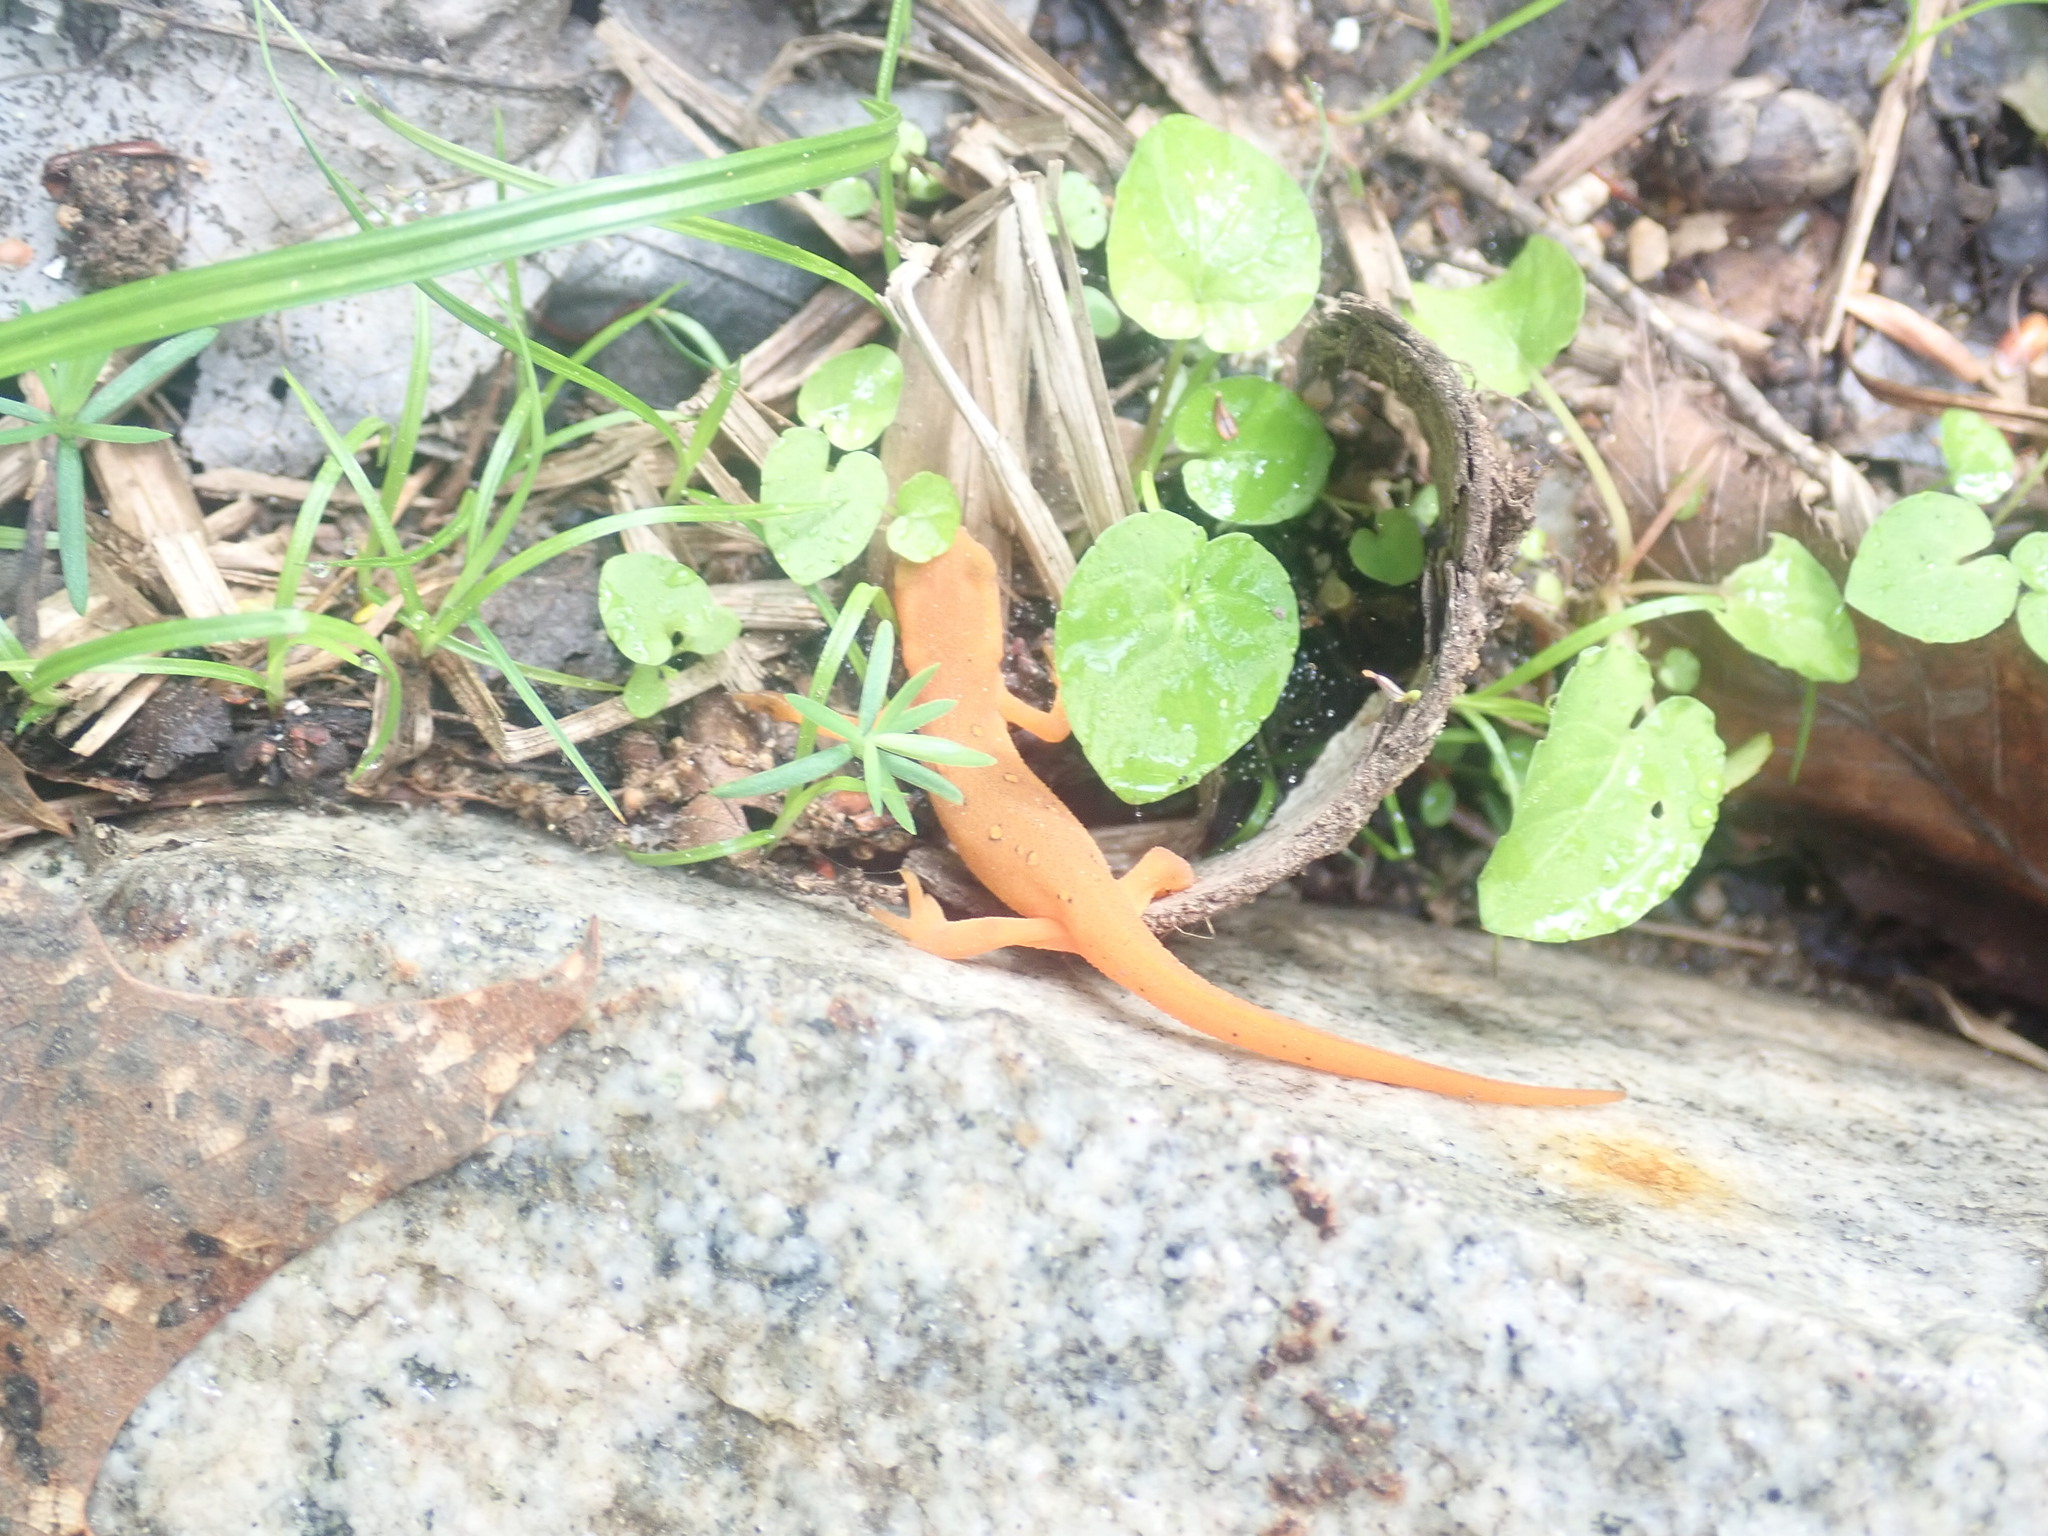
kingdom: Animalia
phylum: Chordata
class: Amphibia
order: Caudata
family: Salamandridae
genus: Notophthalmus
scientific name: Notophthalmus viridescens
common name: Eastern newt
